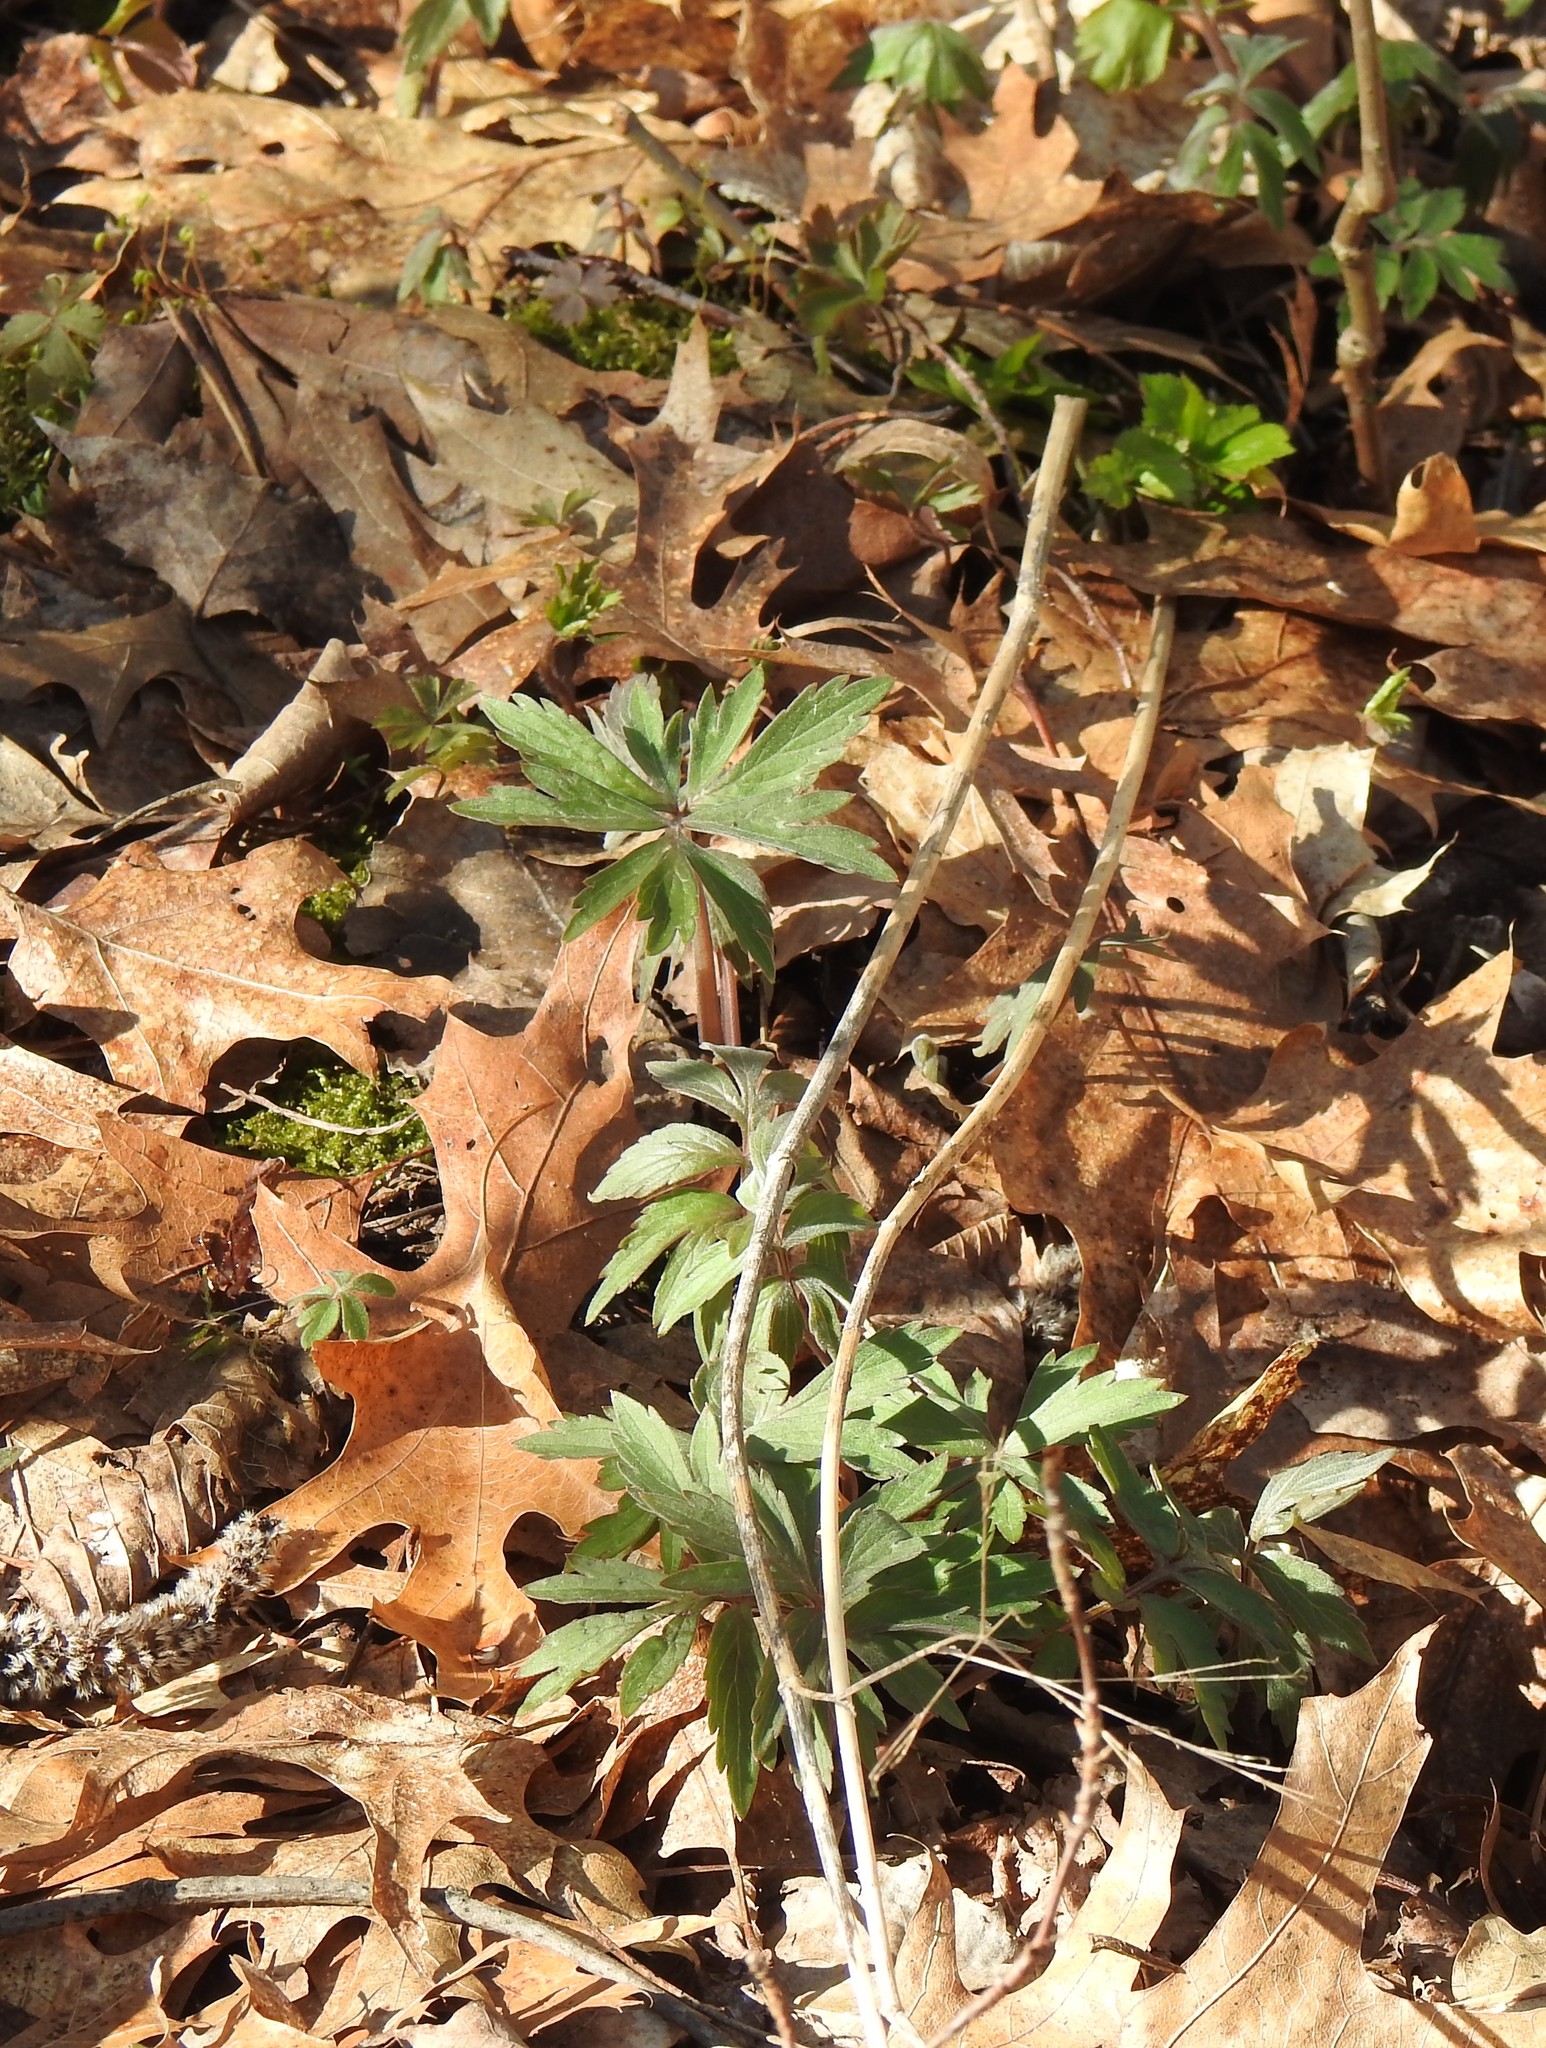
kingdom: Plantae
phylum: Tracheophyta
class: Magnoliopsida
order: Boraginales
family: Hydrophyllaceae
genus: Hydrophyllum
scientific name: Hydrophyllum virginianum
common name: Virginia waterleaf
